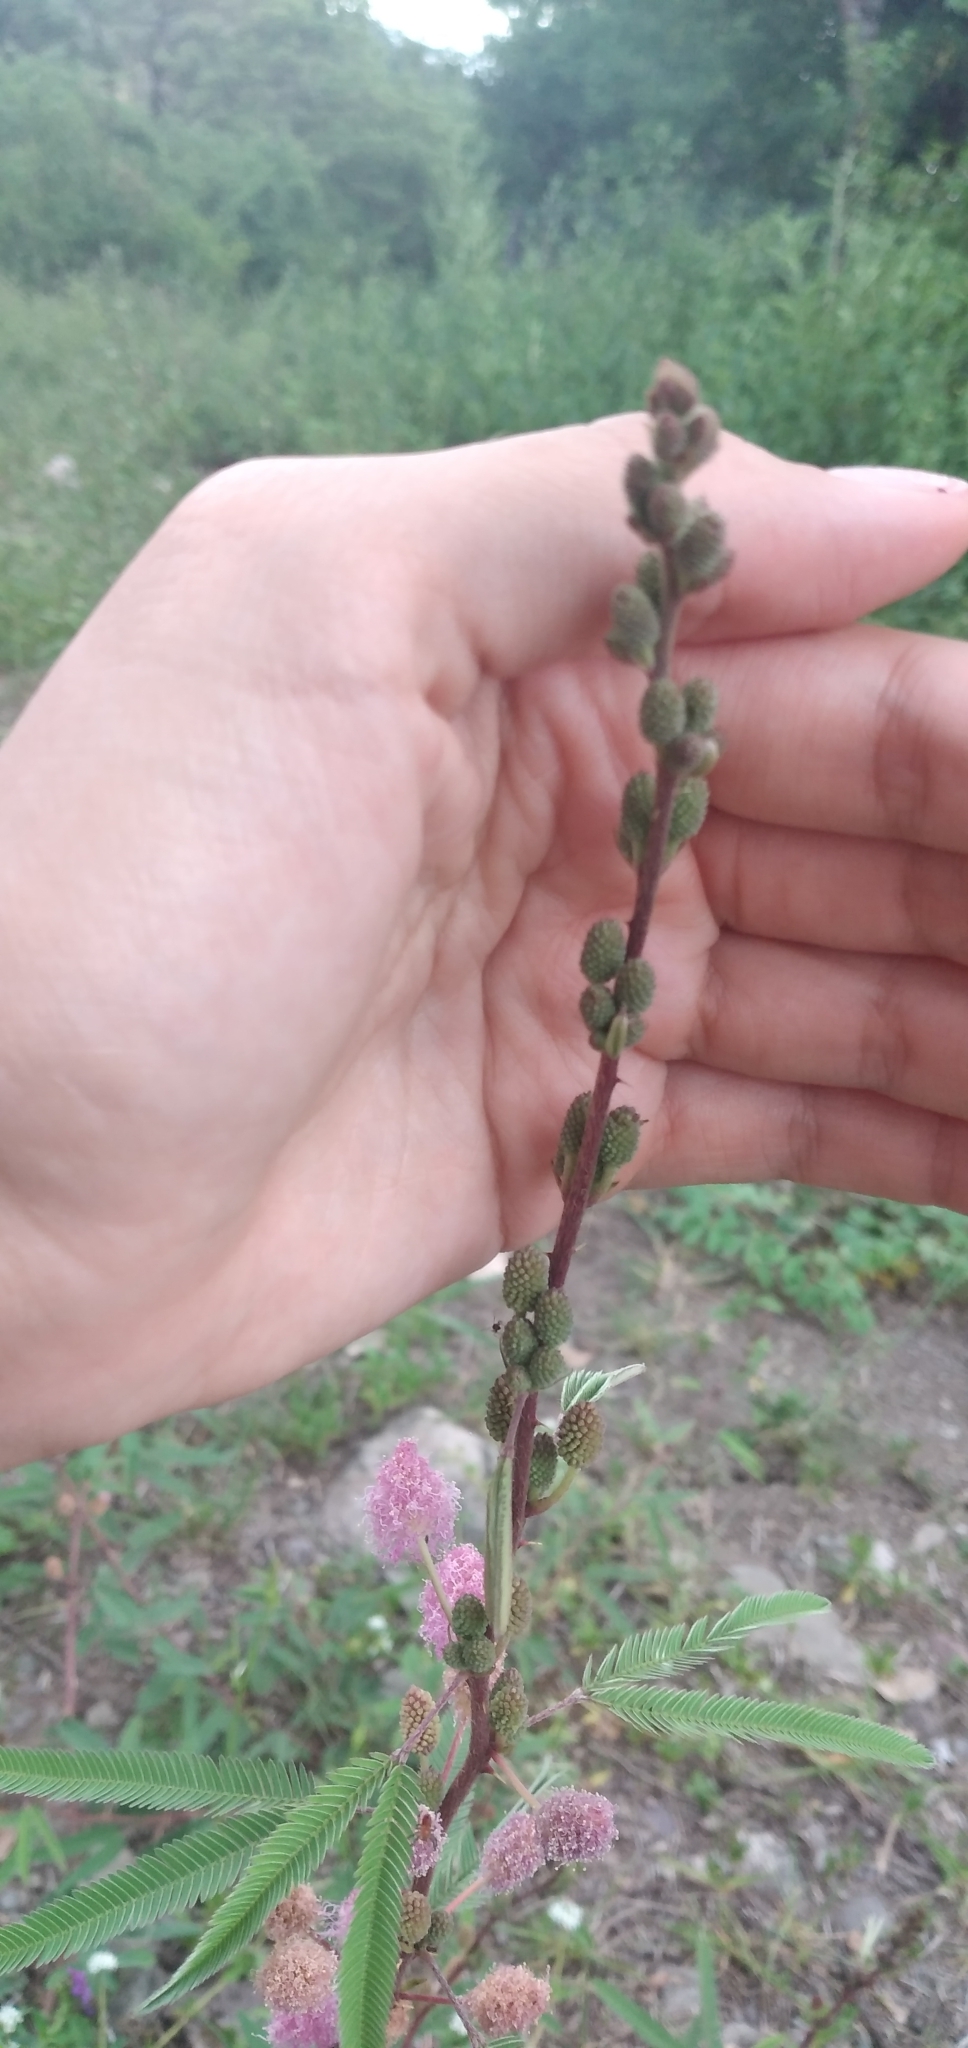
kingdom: Plantae
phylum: Tracheophyta
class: Magnoliopsida
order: Fabales
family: Fabaceae
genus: Mimosa
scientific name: Mimosa polycarpa
